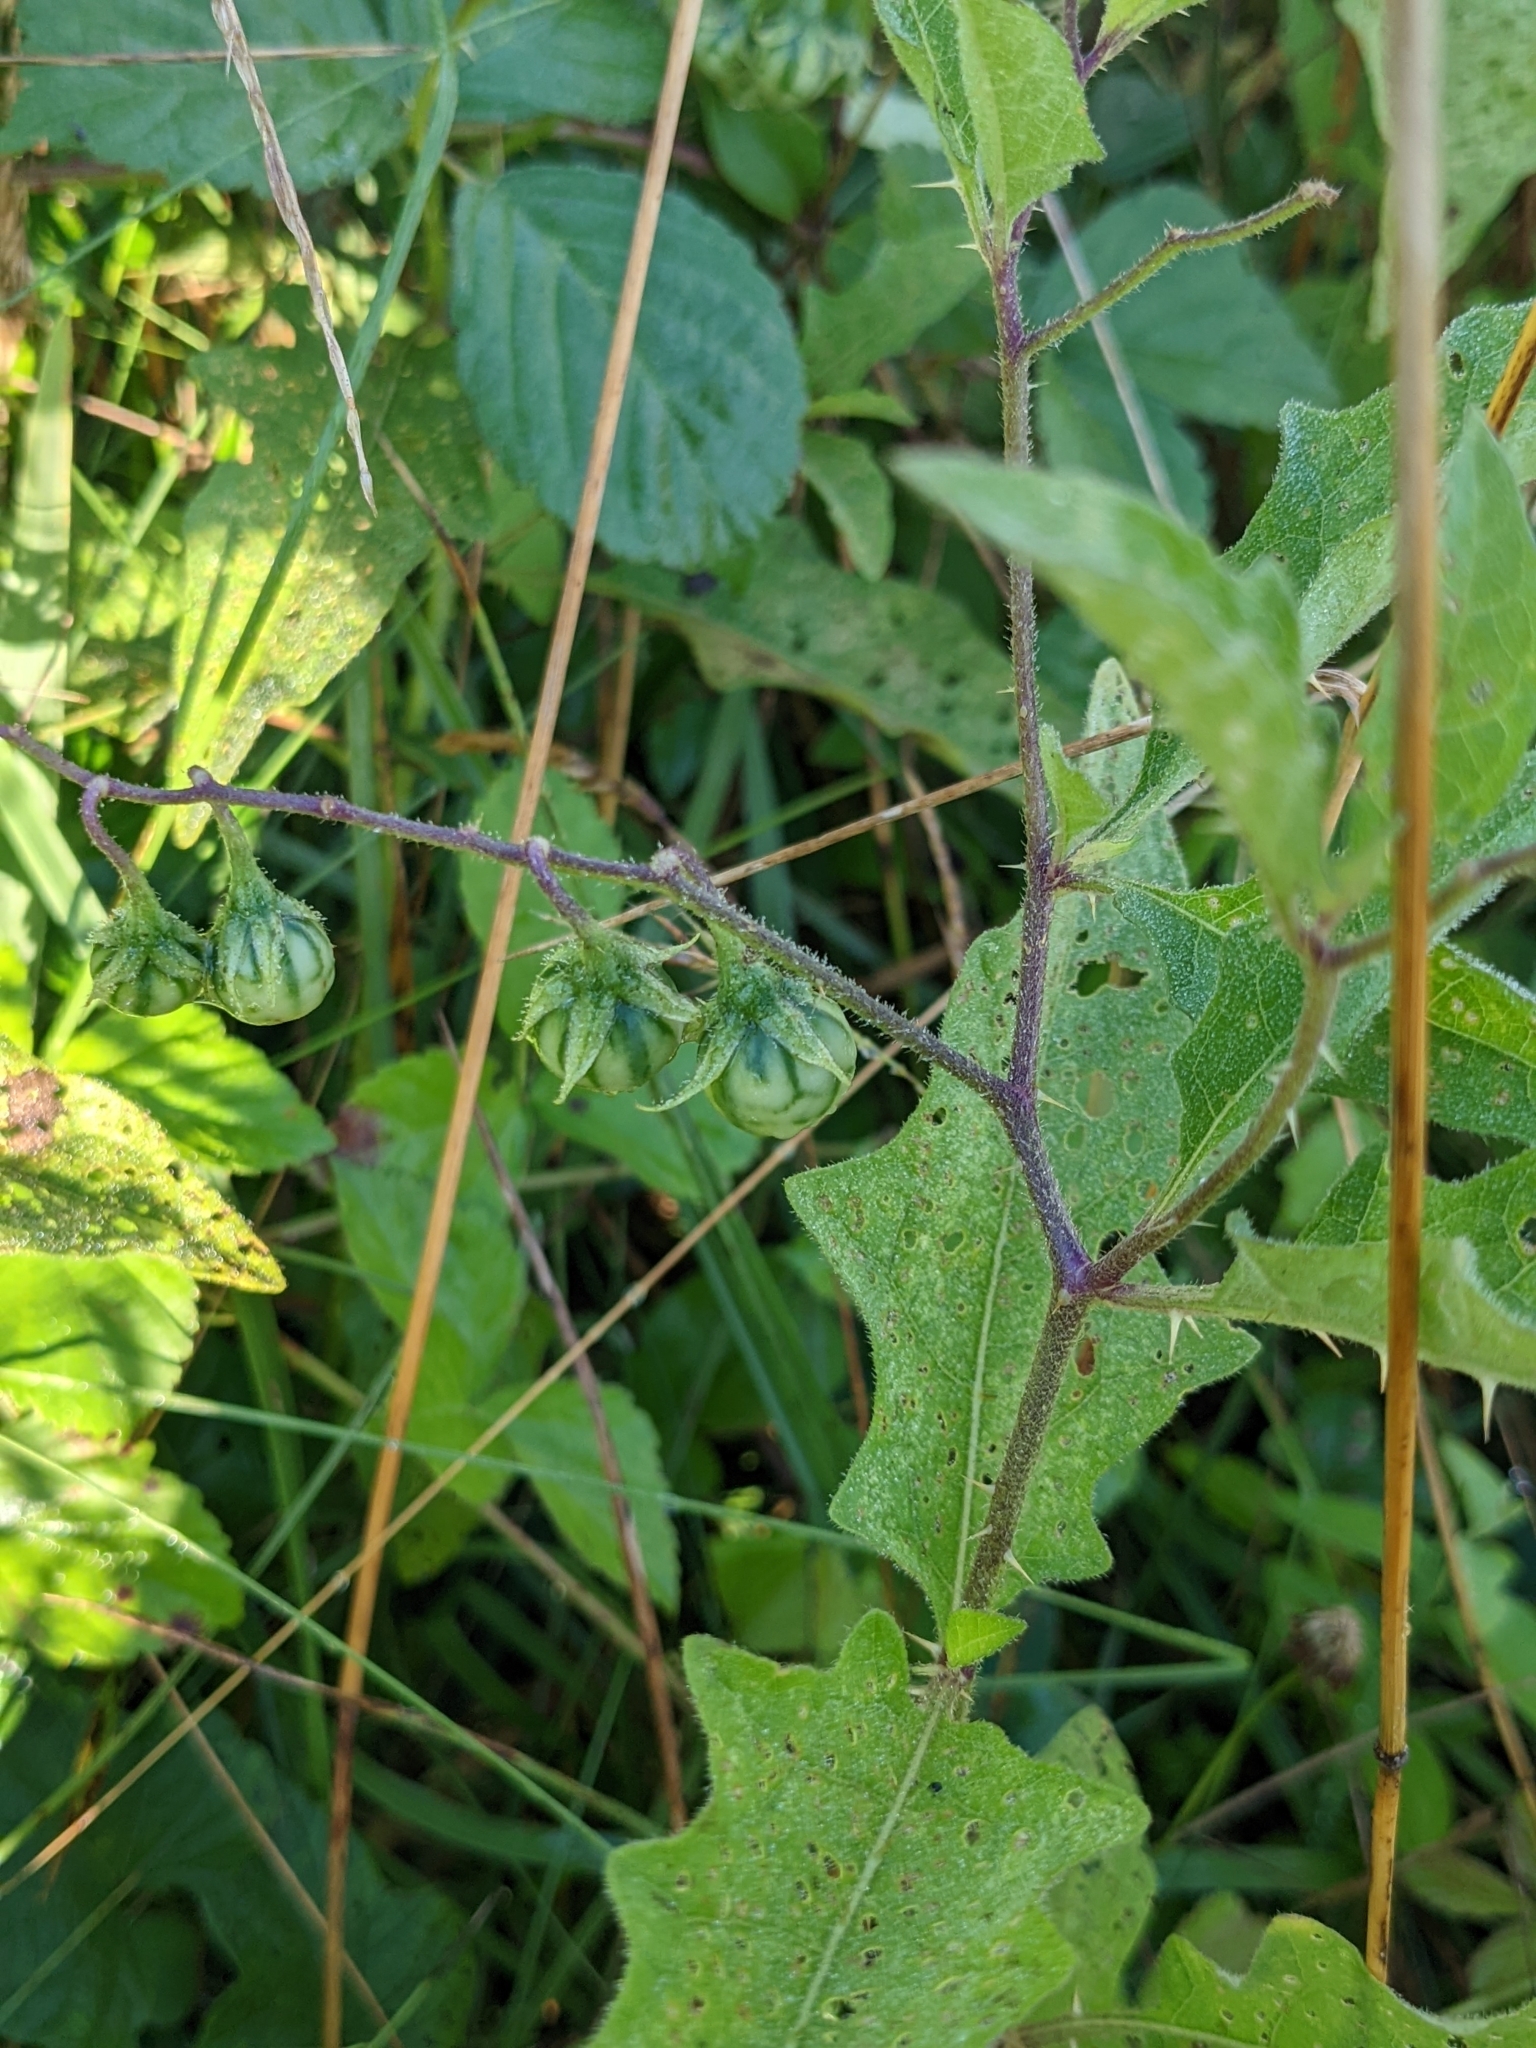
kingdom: Plantae
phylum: Tracheophyta
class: Magnoliopsida
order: Solanales
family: Solanaceae
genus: Solanum
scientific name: Solanum carolinense
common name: Horse-nettle
